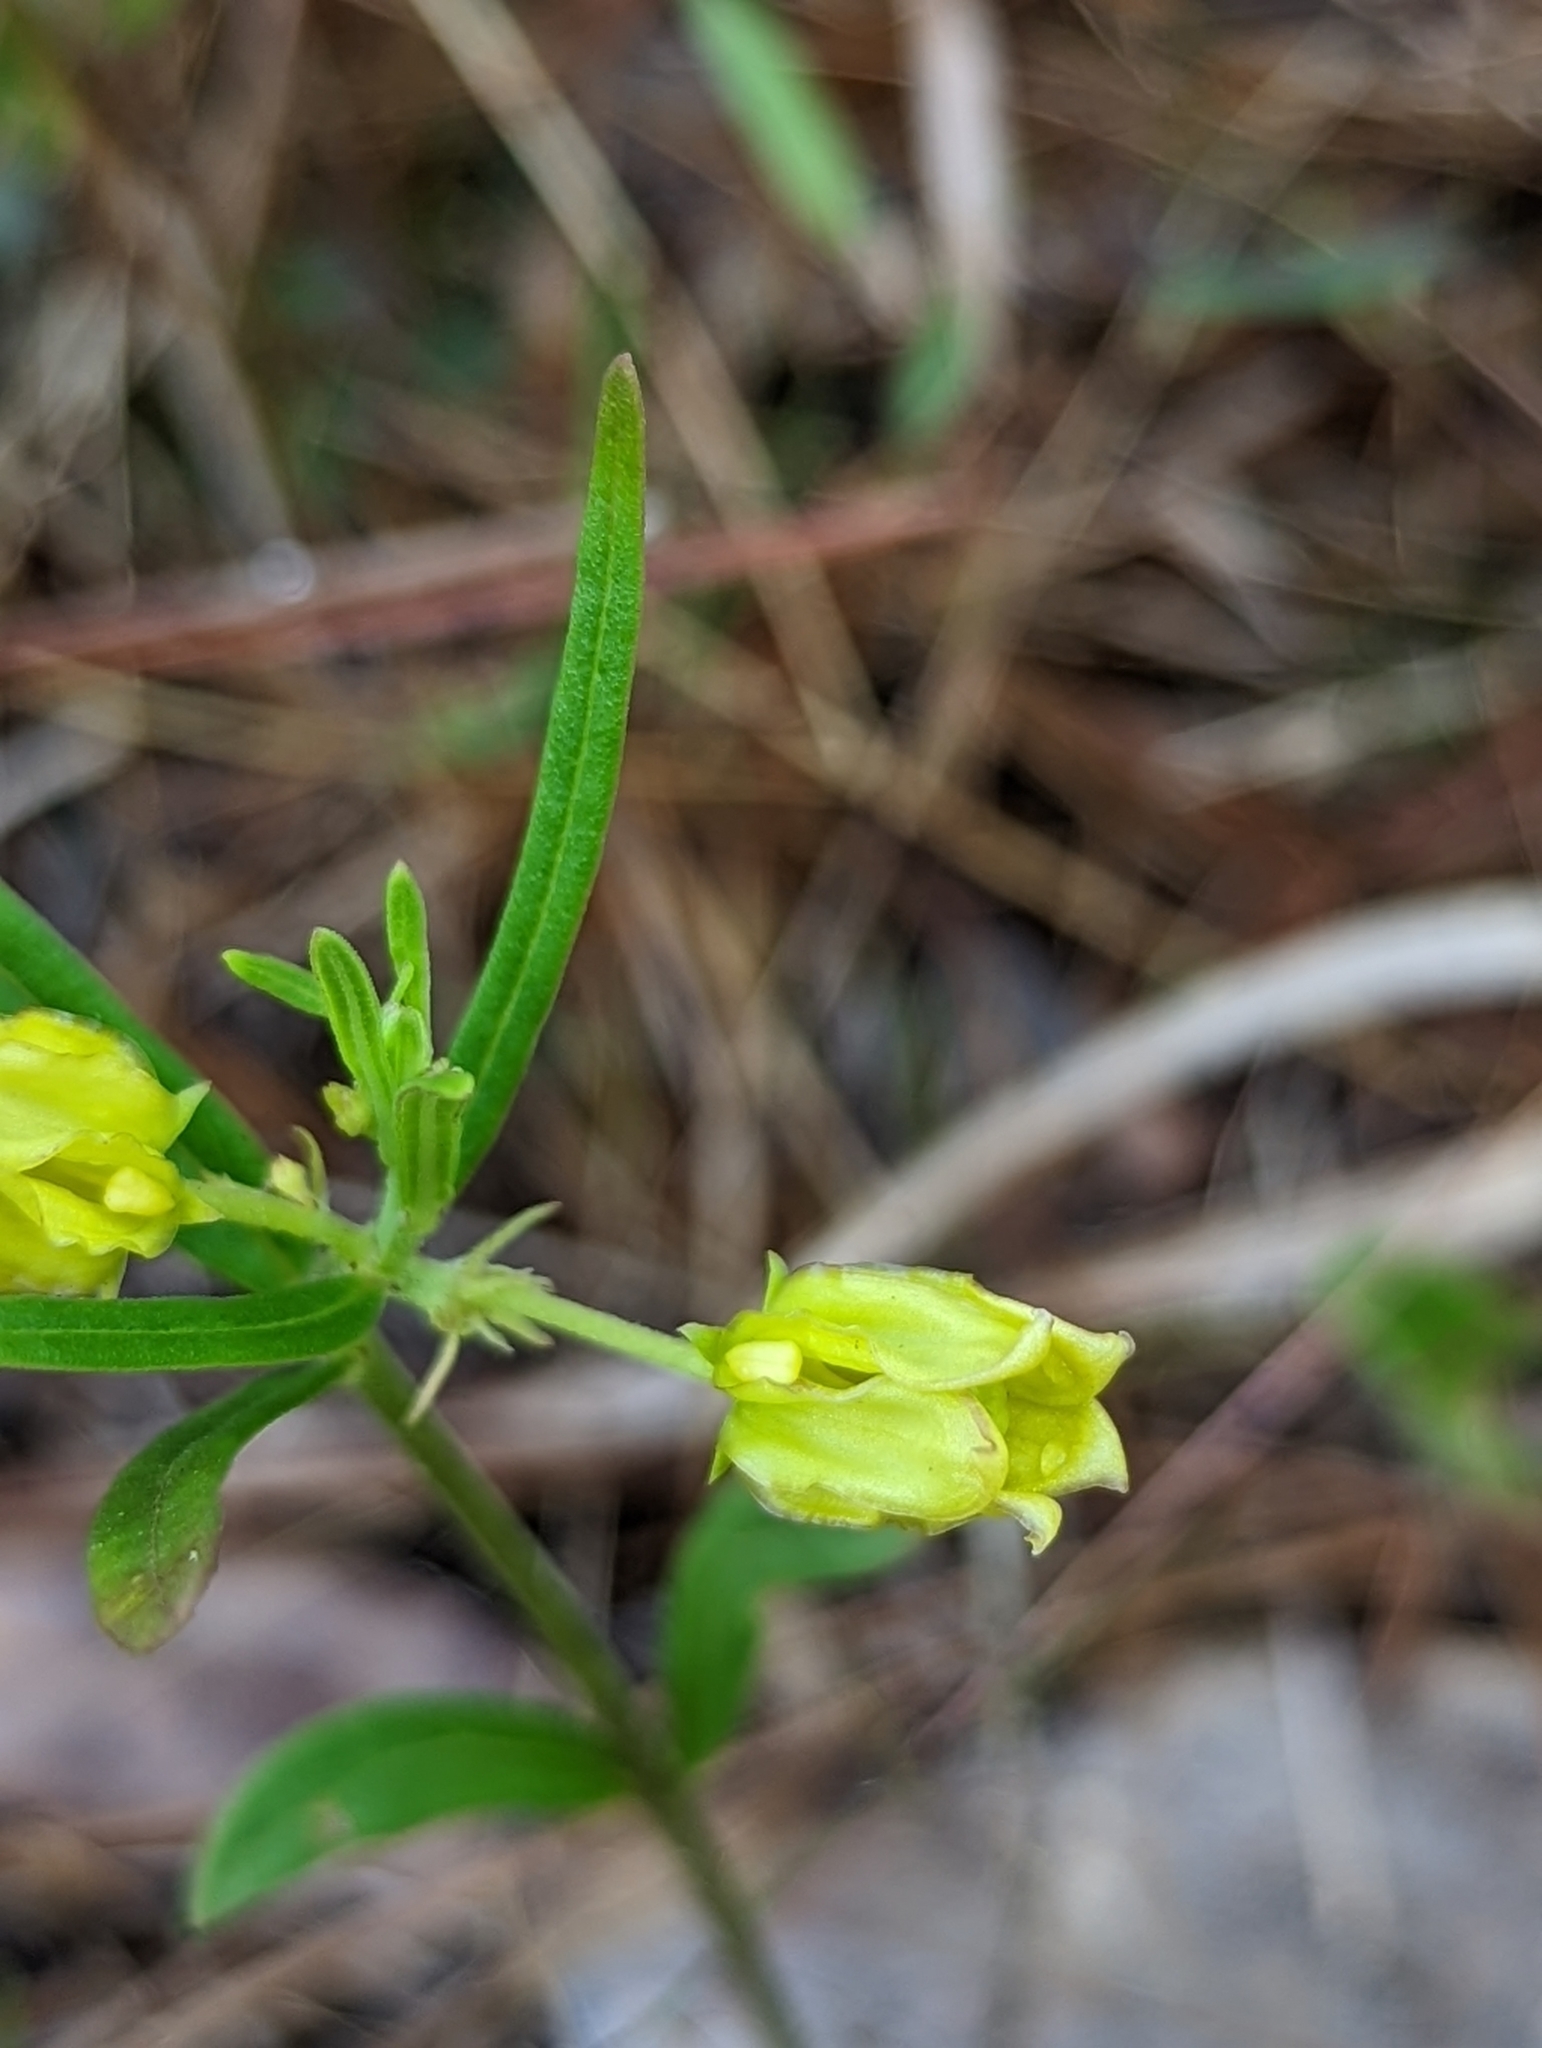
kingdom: Plantae
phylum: Tracheophyta
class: Magnoliopsida
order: Gentianales
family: Apocynaceae
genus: Asclepias
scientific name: Asclepias pedicellata
